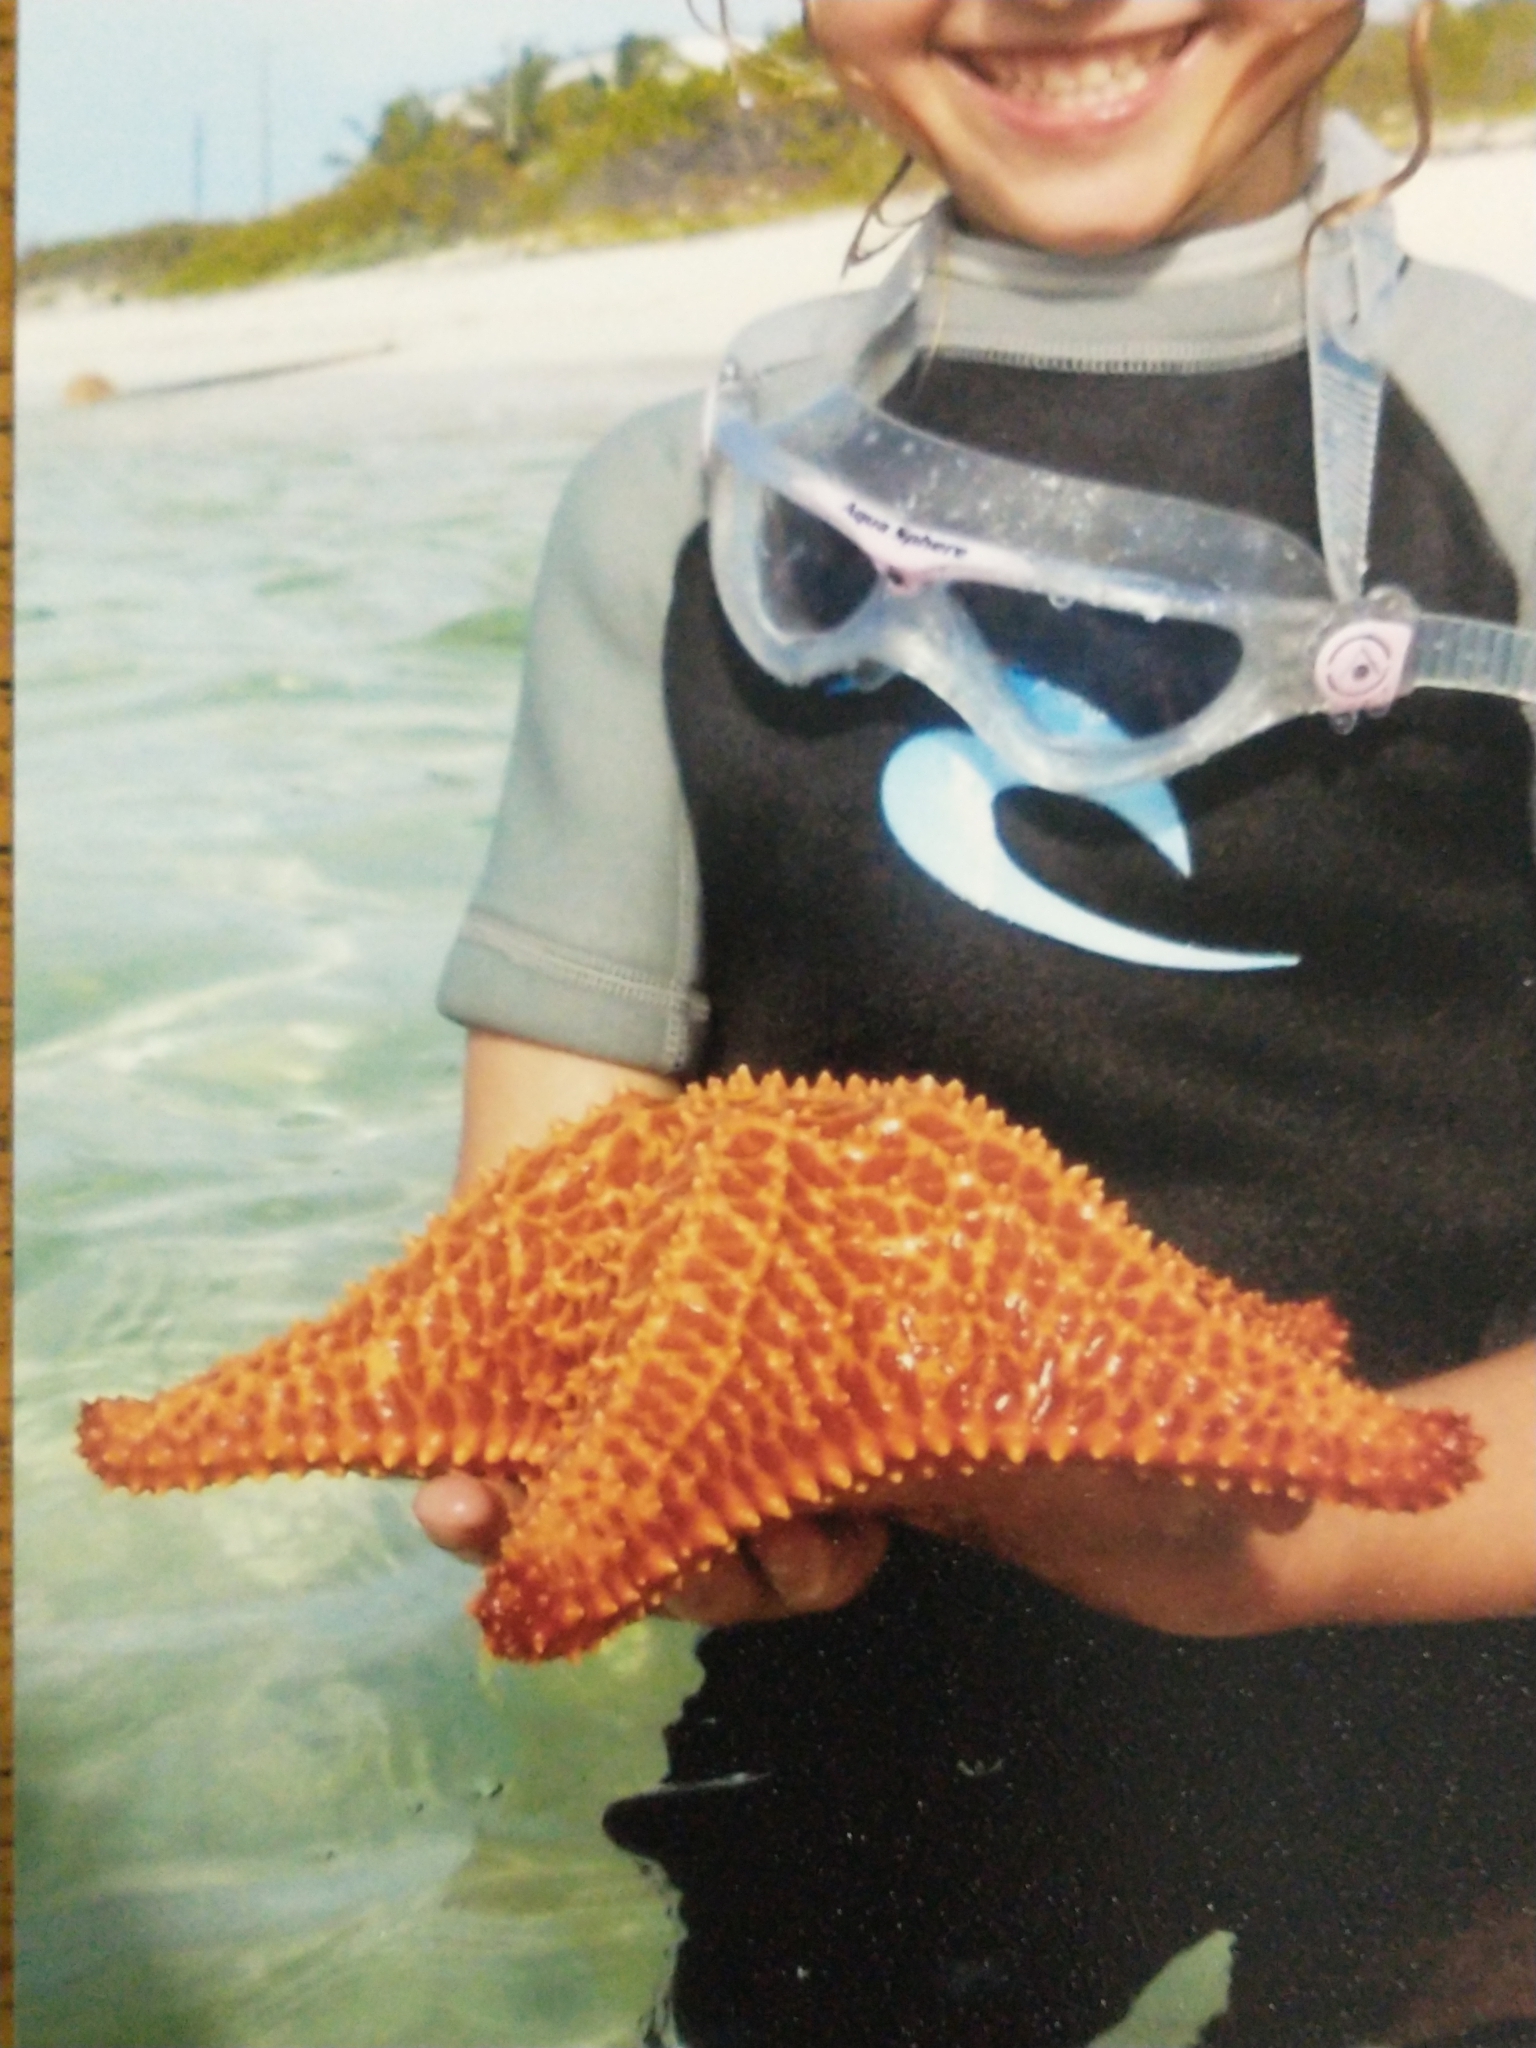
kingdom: Animalia
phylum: Echinodermata
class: Asteroidea
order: Valvatida
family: Oreasteridae
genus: Oreaster
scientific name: Oreaster reticulatus
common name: Cushion sea star
